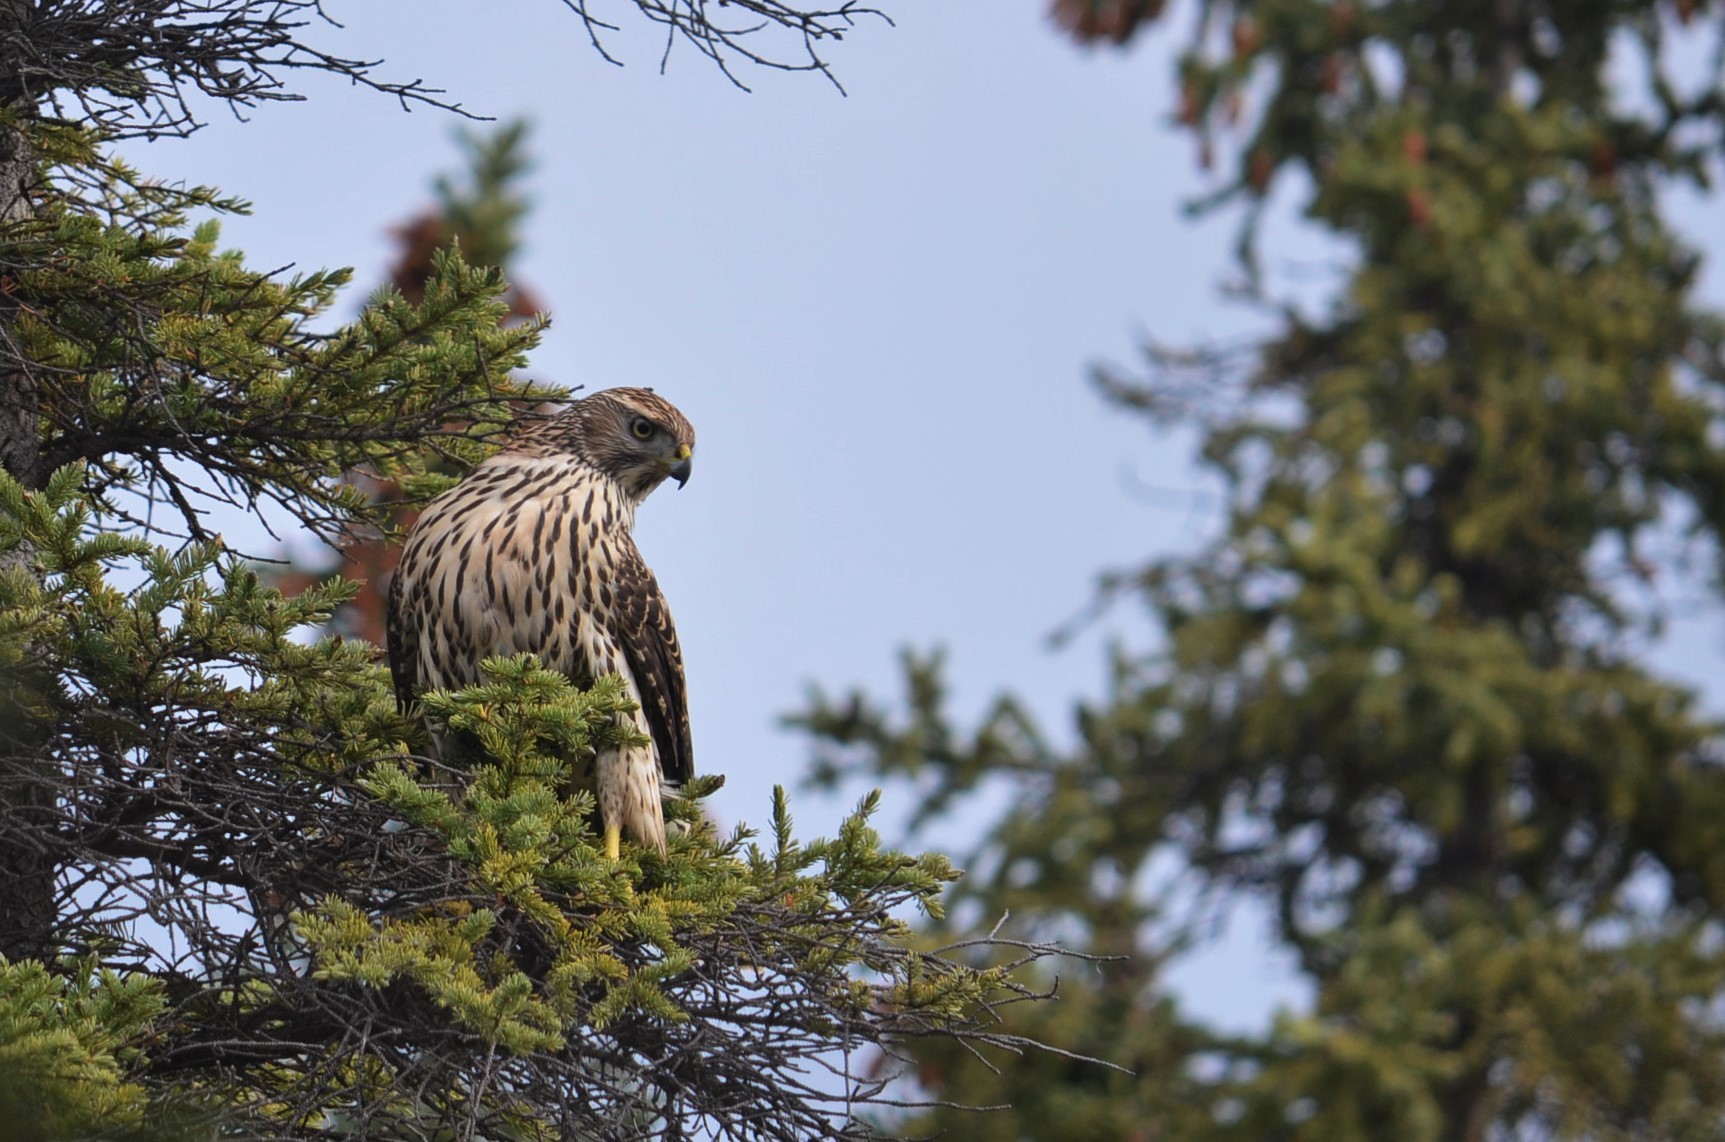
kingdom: Animalia
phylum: Chordata
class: Aves
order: Accipitriformes
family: Accipitridae
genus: Accipiter
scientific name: Accipiter gentilis
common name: Northern goshawk
